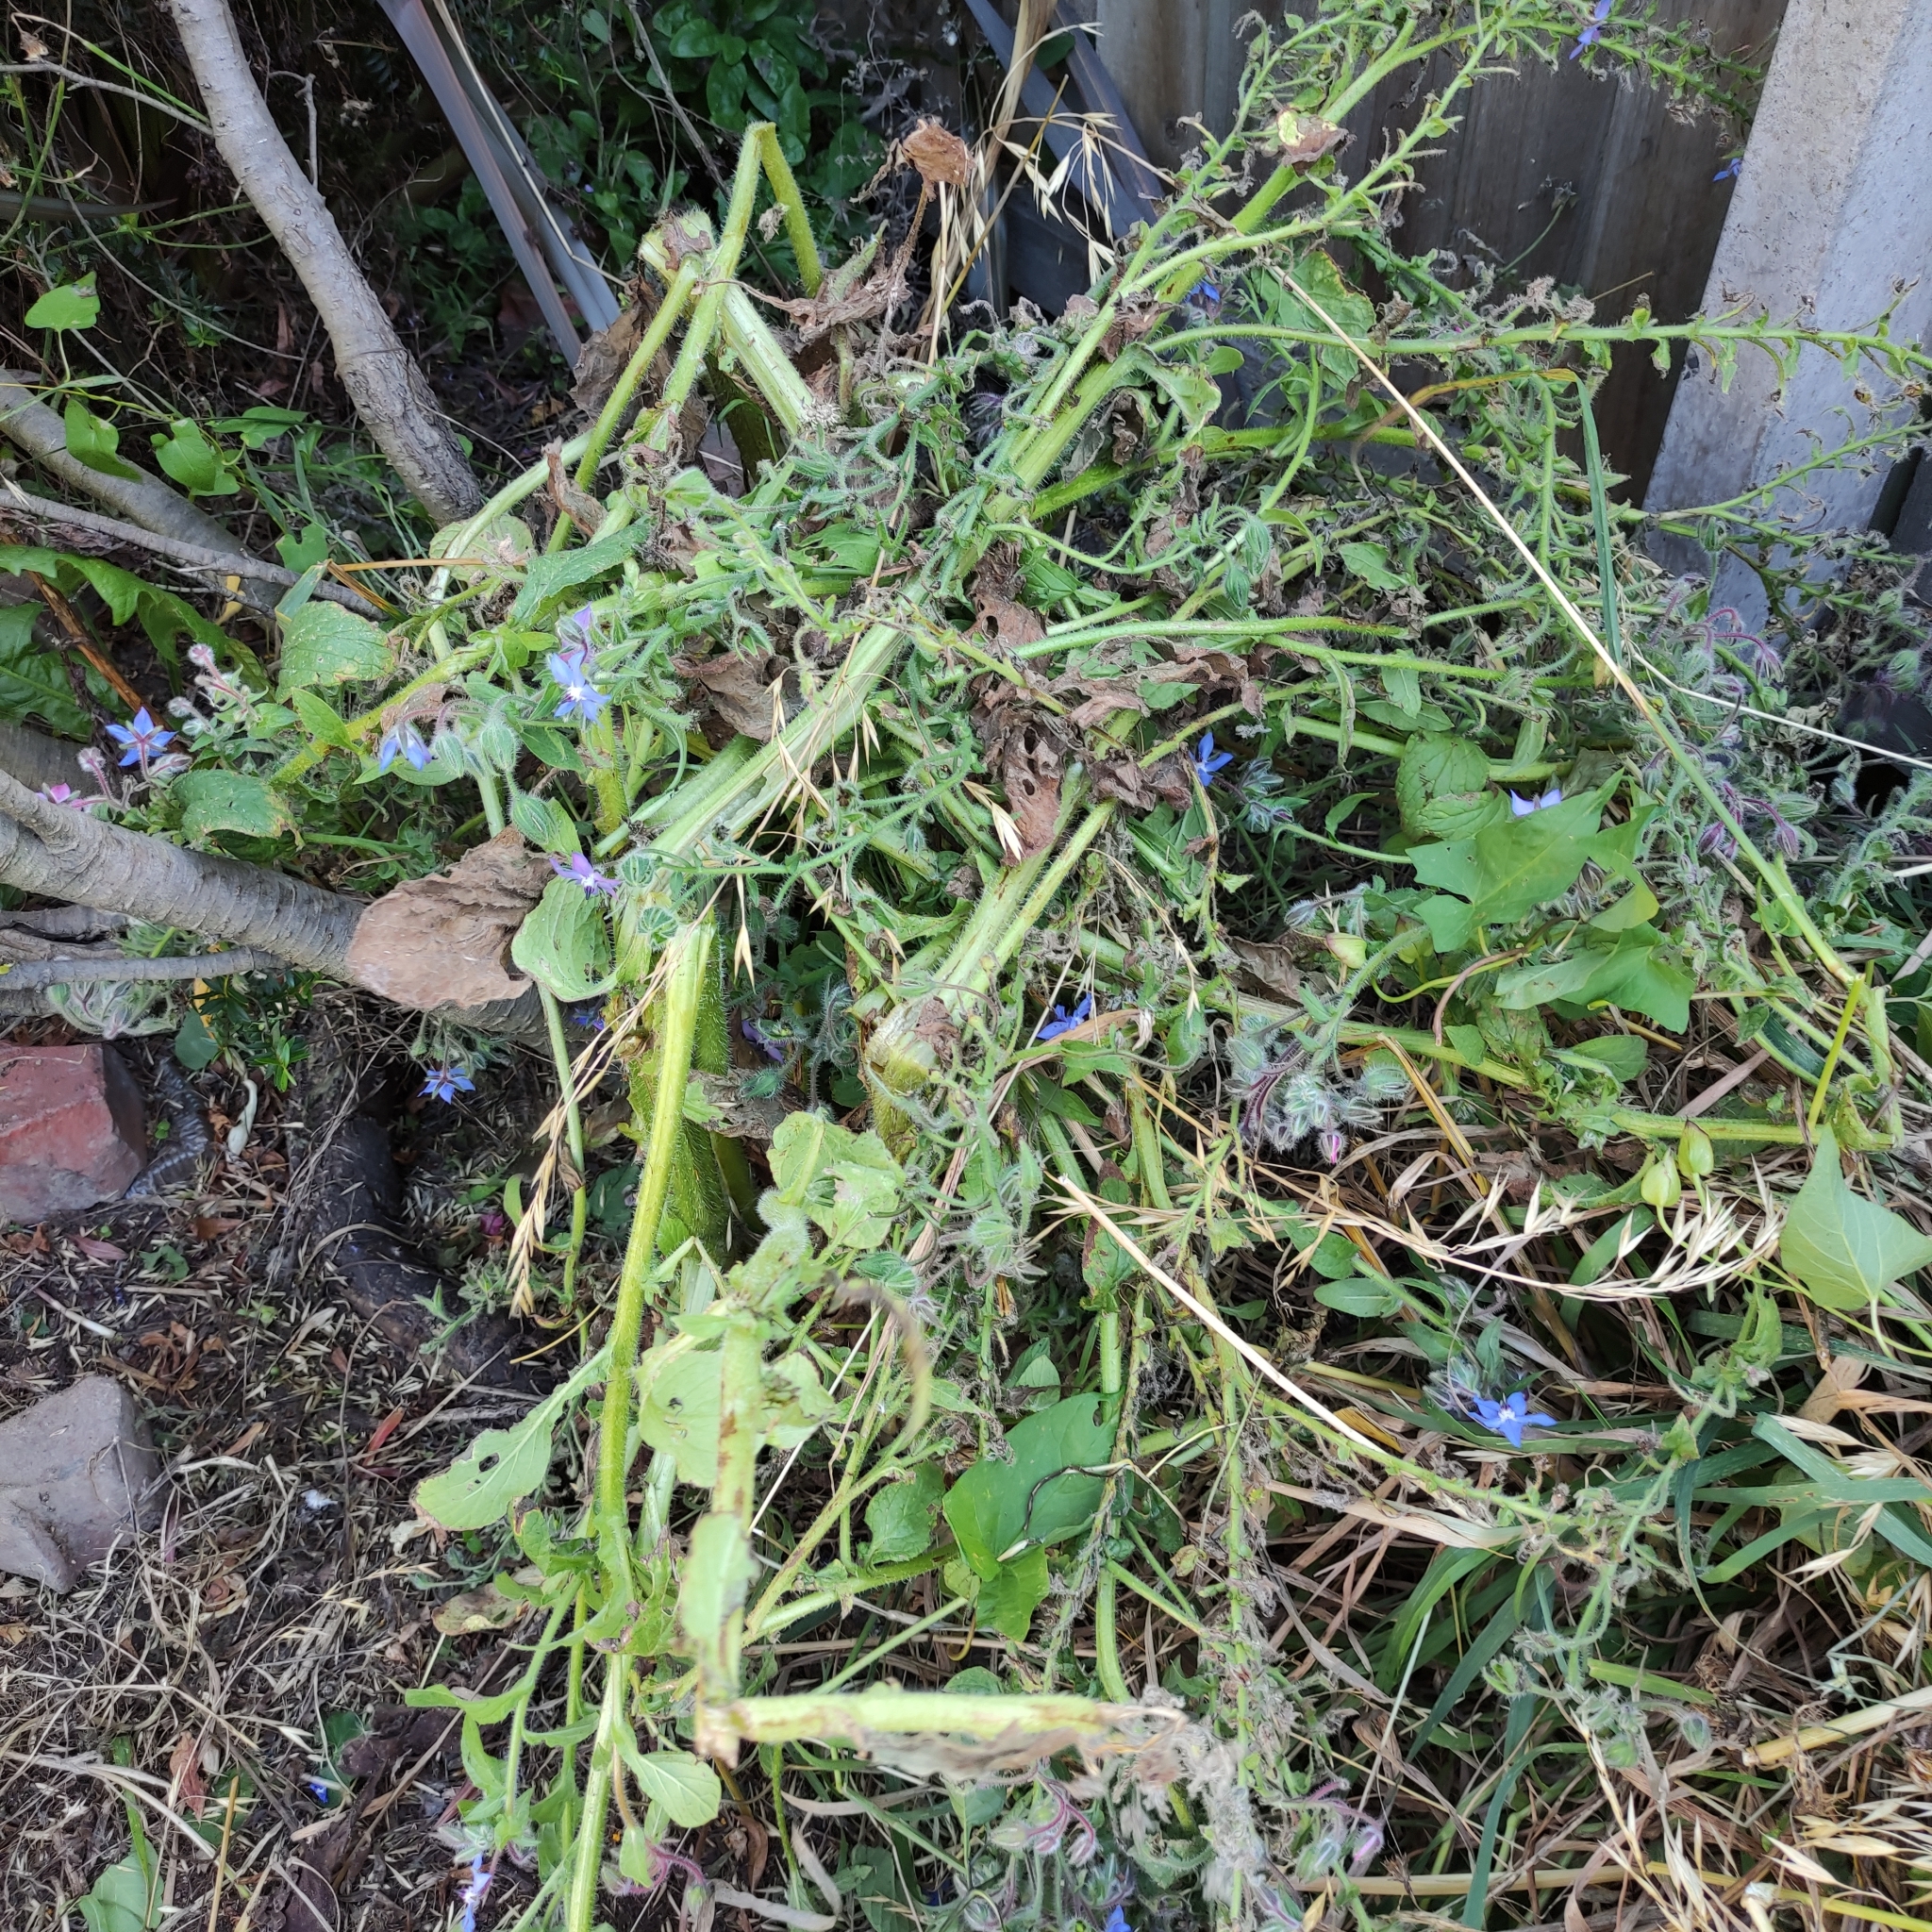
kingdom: Plantae
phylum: Tracheophyta
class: Magnoliopsida
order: Boraginales
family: Boraginaceae
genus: Borago
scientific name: Borago officinalis
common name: Borage
